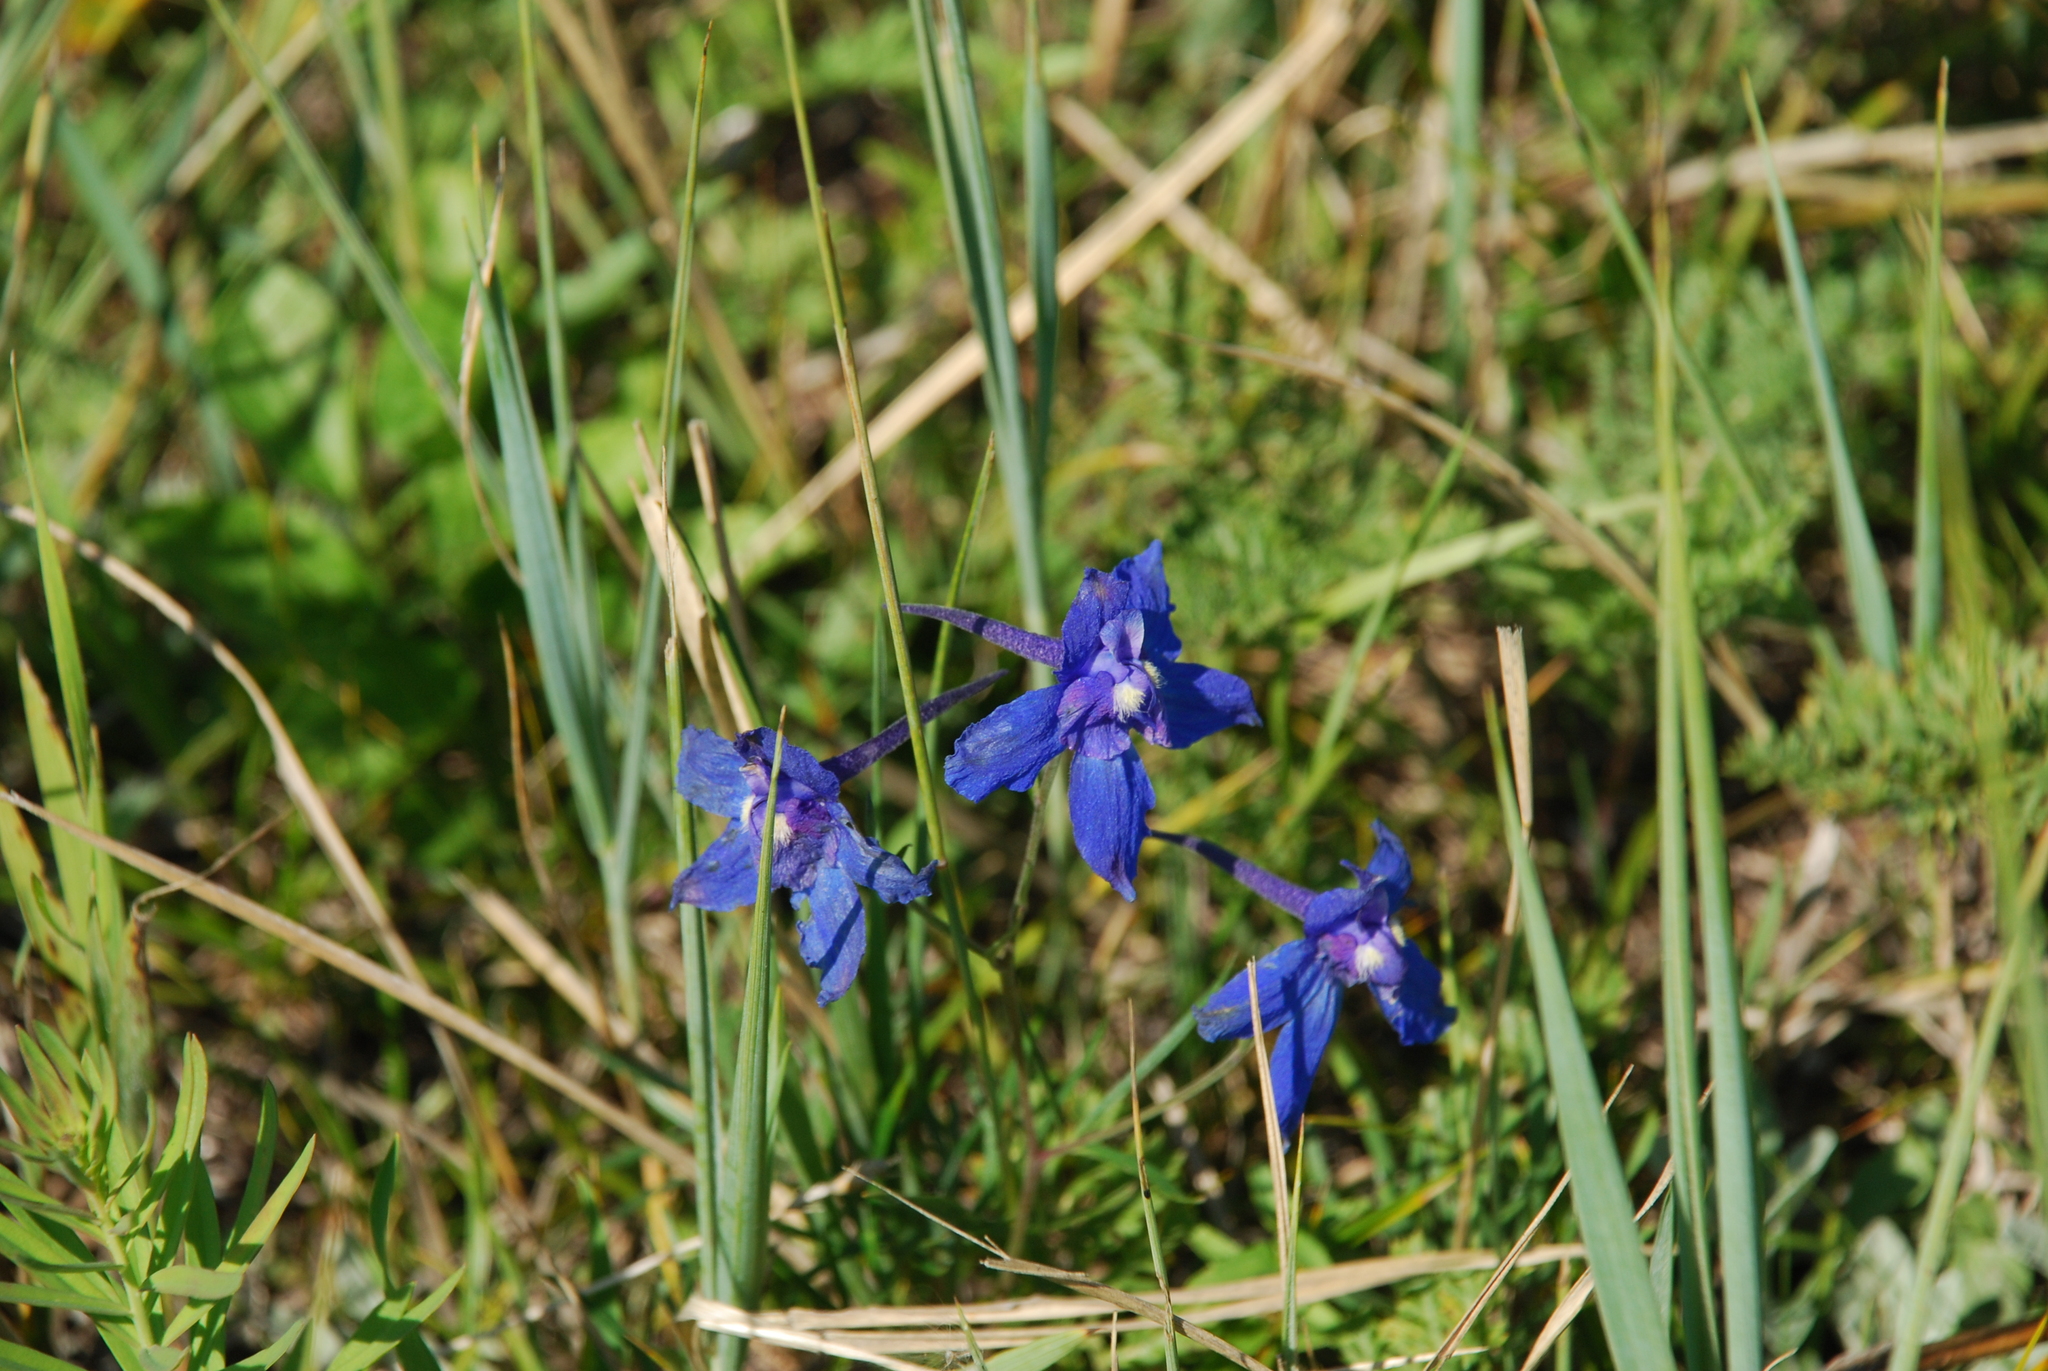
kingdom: Plantae
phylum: Tracheophyta
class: Magnoliopsida
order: Ranunculales
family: Ranunculaceae
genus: Delphinium
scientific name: Delphinium grandiflorum
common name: Siberian larkspur
